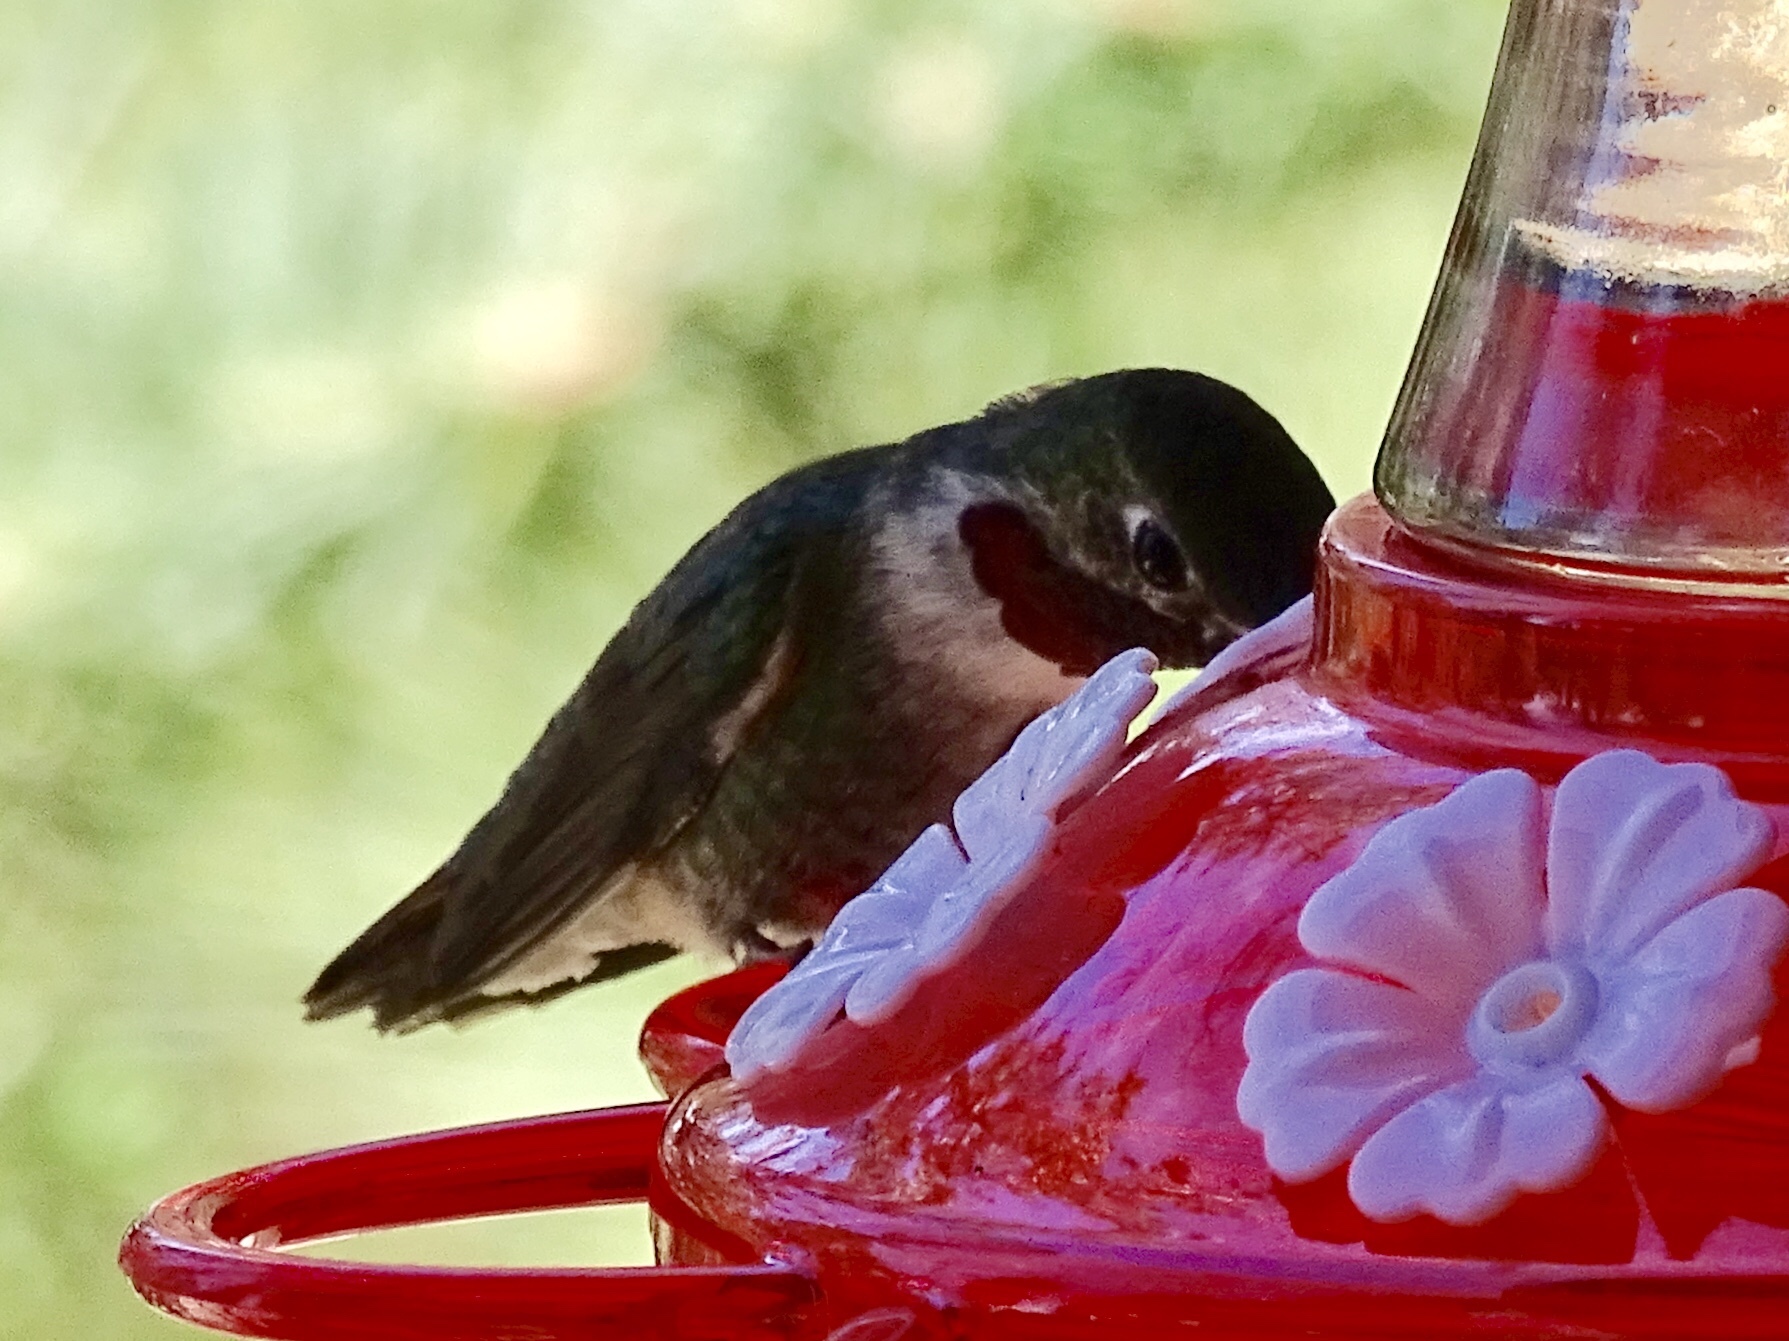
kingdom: Animalia
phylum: Chordata
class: Aves
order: Apodiformes
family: Trochilidae
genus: Selasphorus
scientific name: Selasphorus platycercus
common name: Broad-tailed hummingbird
